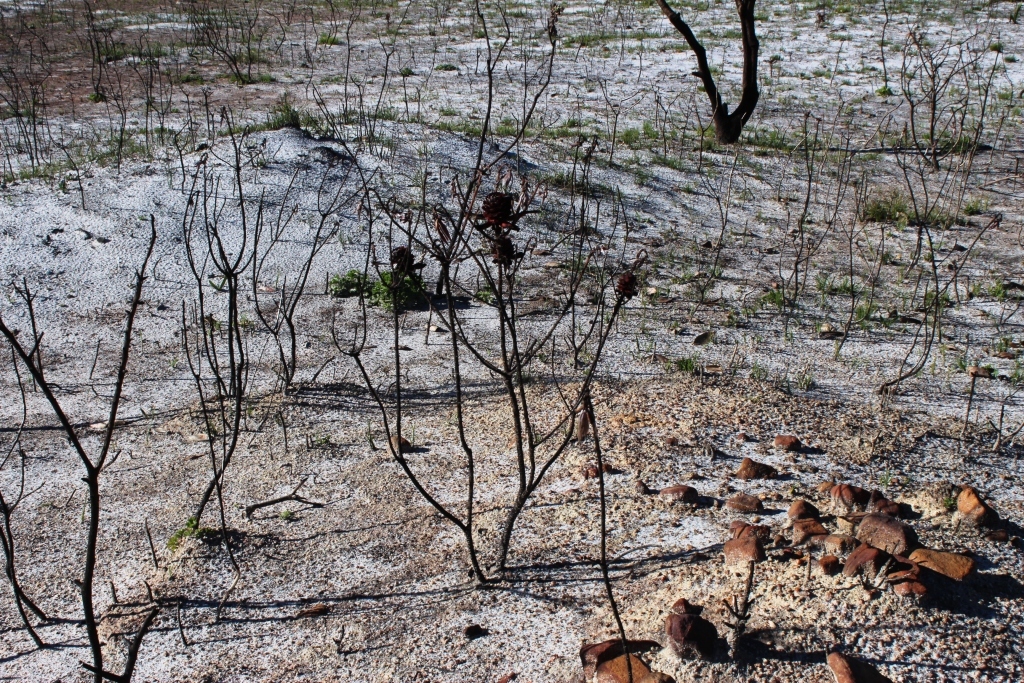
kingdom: Plantae
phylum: Tracheophyta
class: Magnoliopsida
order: Proteales
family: Proteaceae
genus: Leucadendron
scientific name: Leucadendron laureolum
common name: Golden sunshinebush
